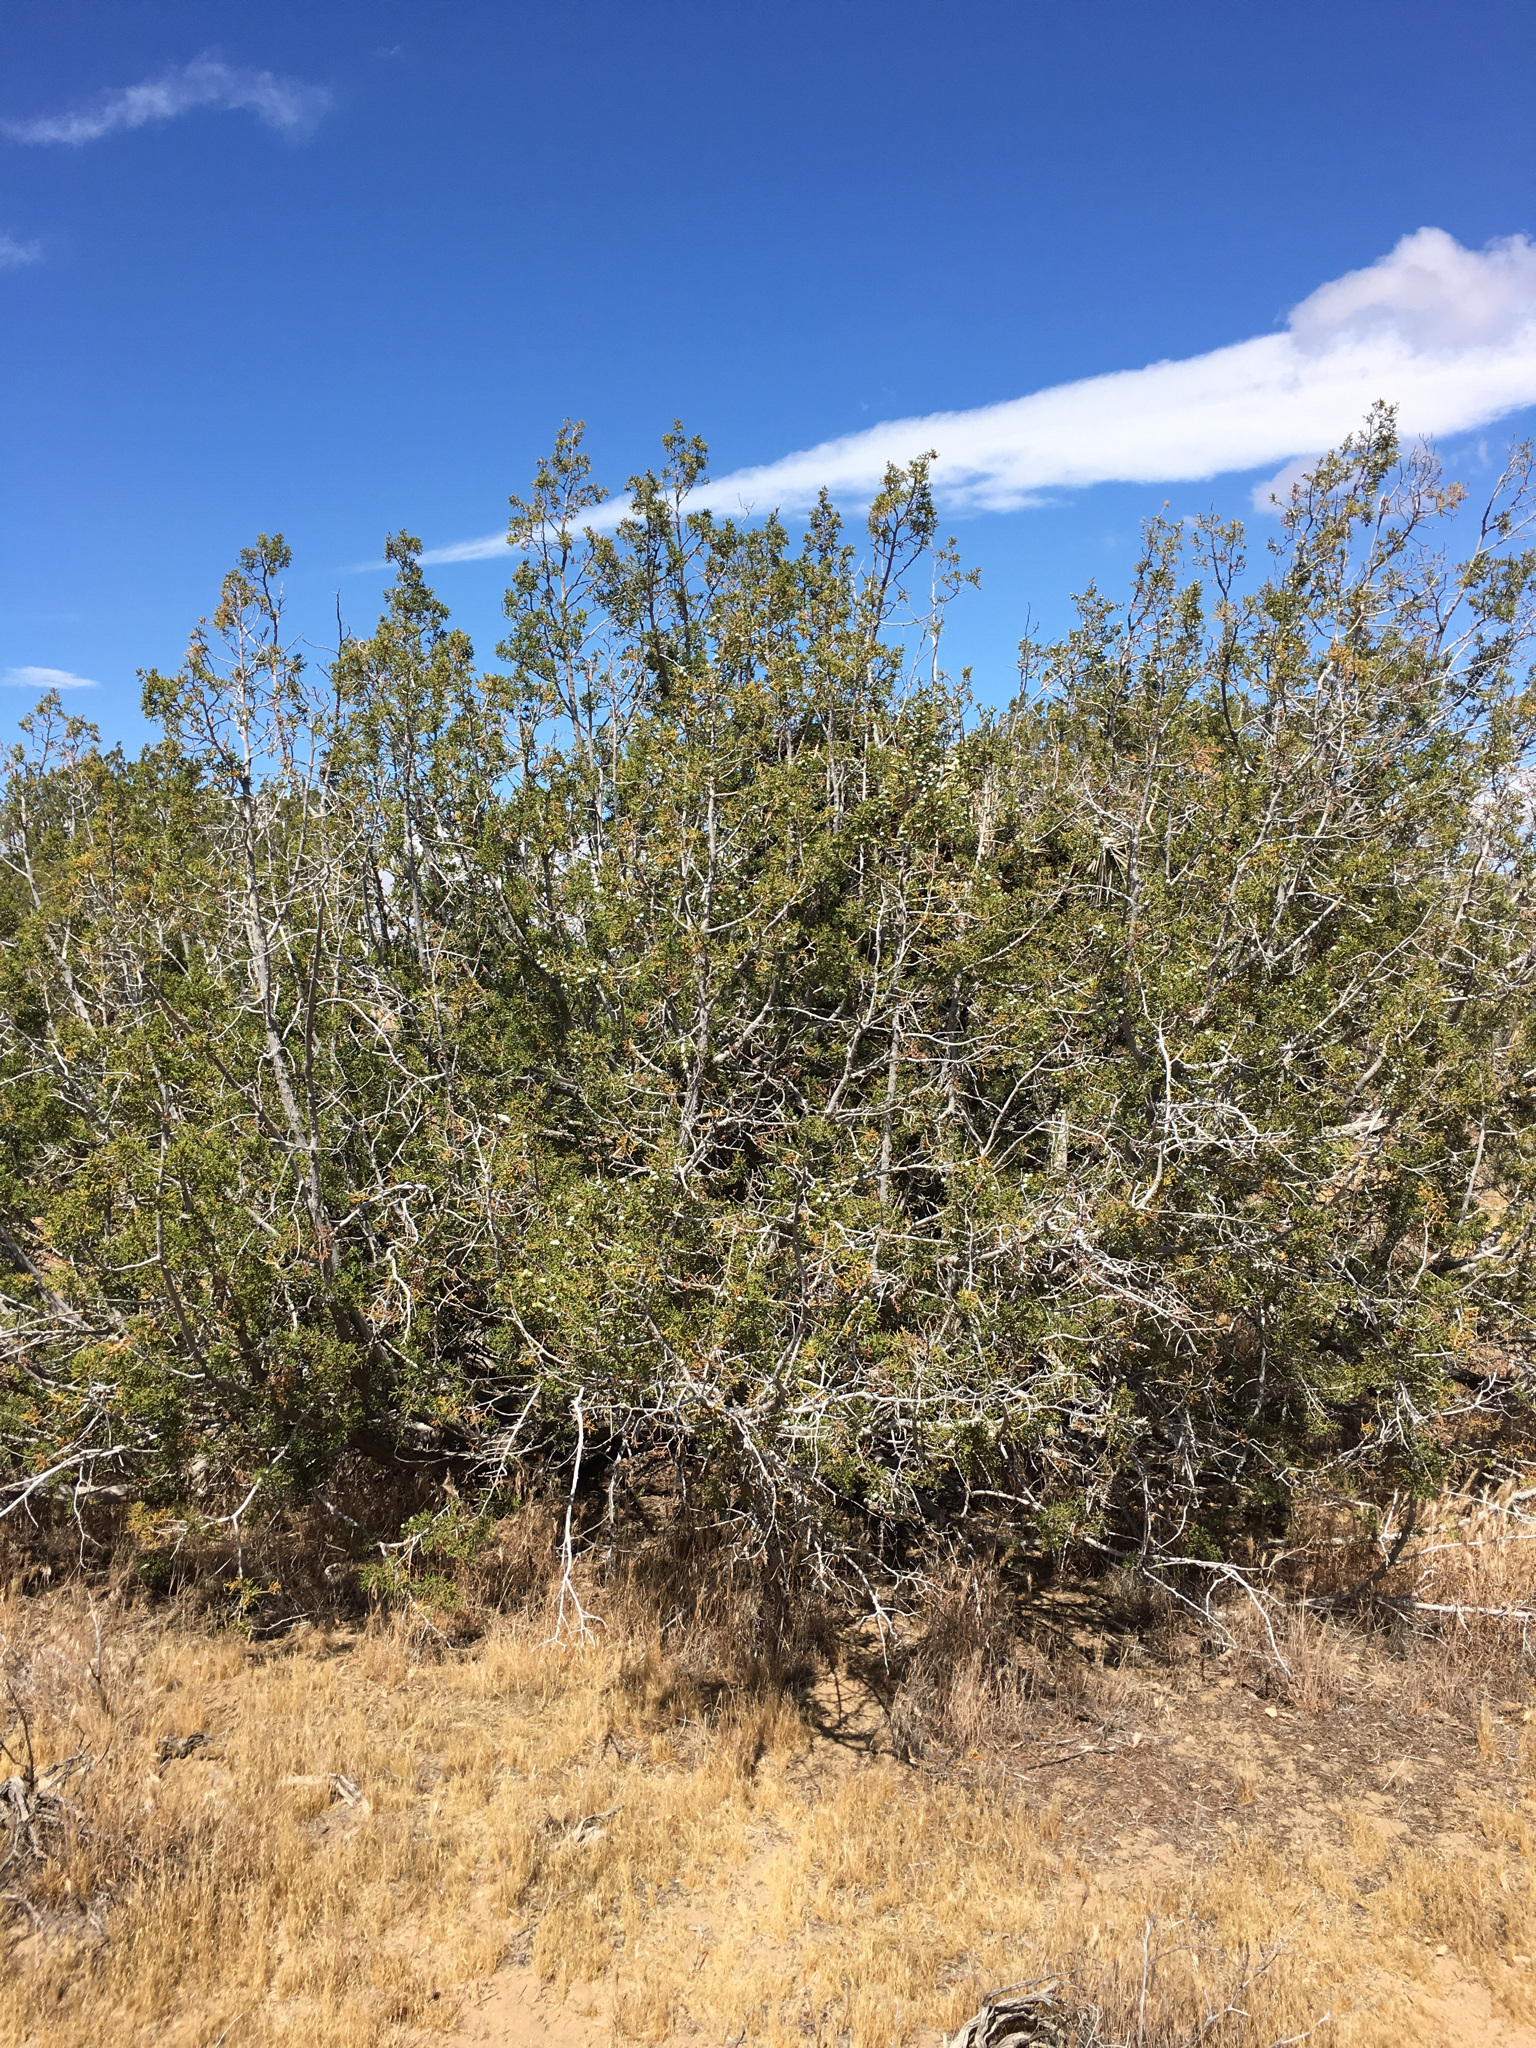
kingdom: Plantae
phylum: Tracheophyta
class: Pinopsida
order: Pinales
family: Cupressaceae
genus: Juniperus
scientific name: Juniperus californica
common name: California juniper
